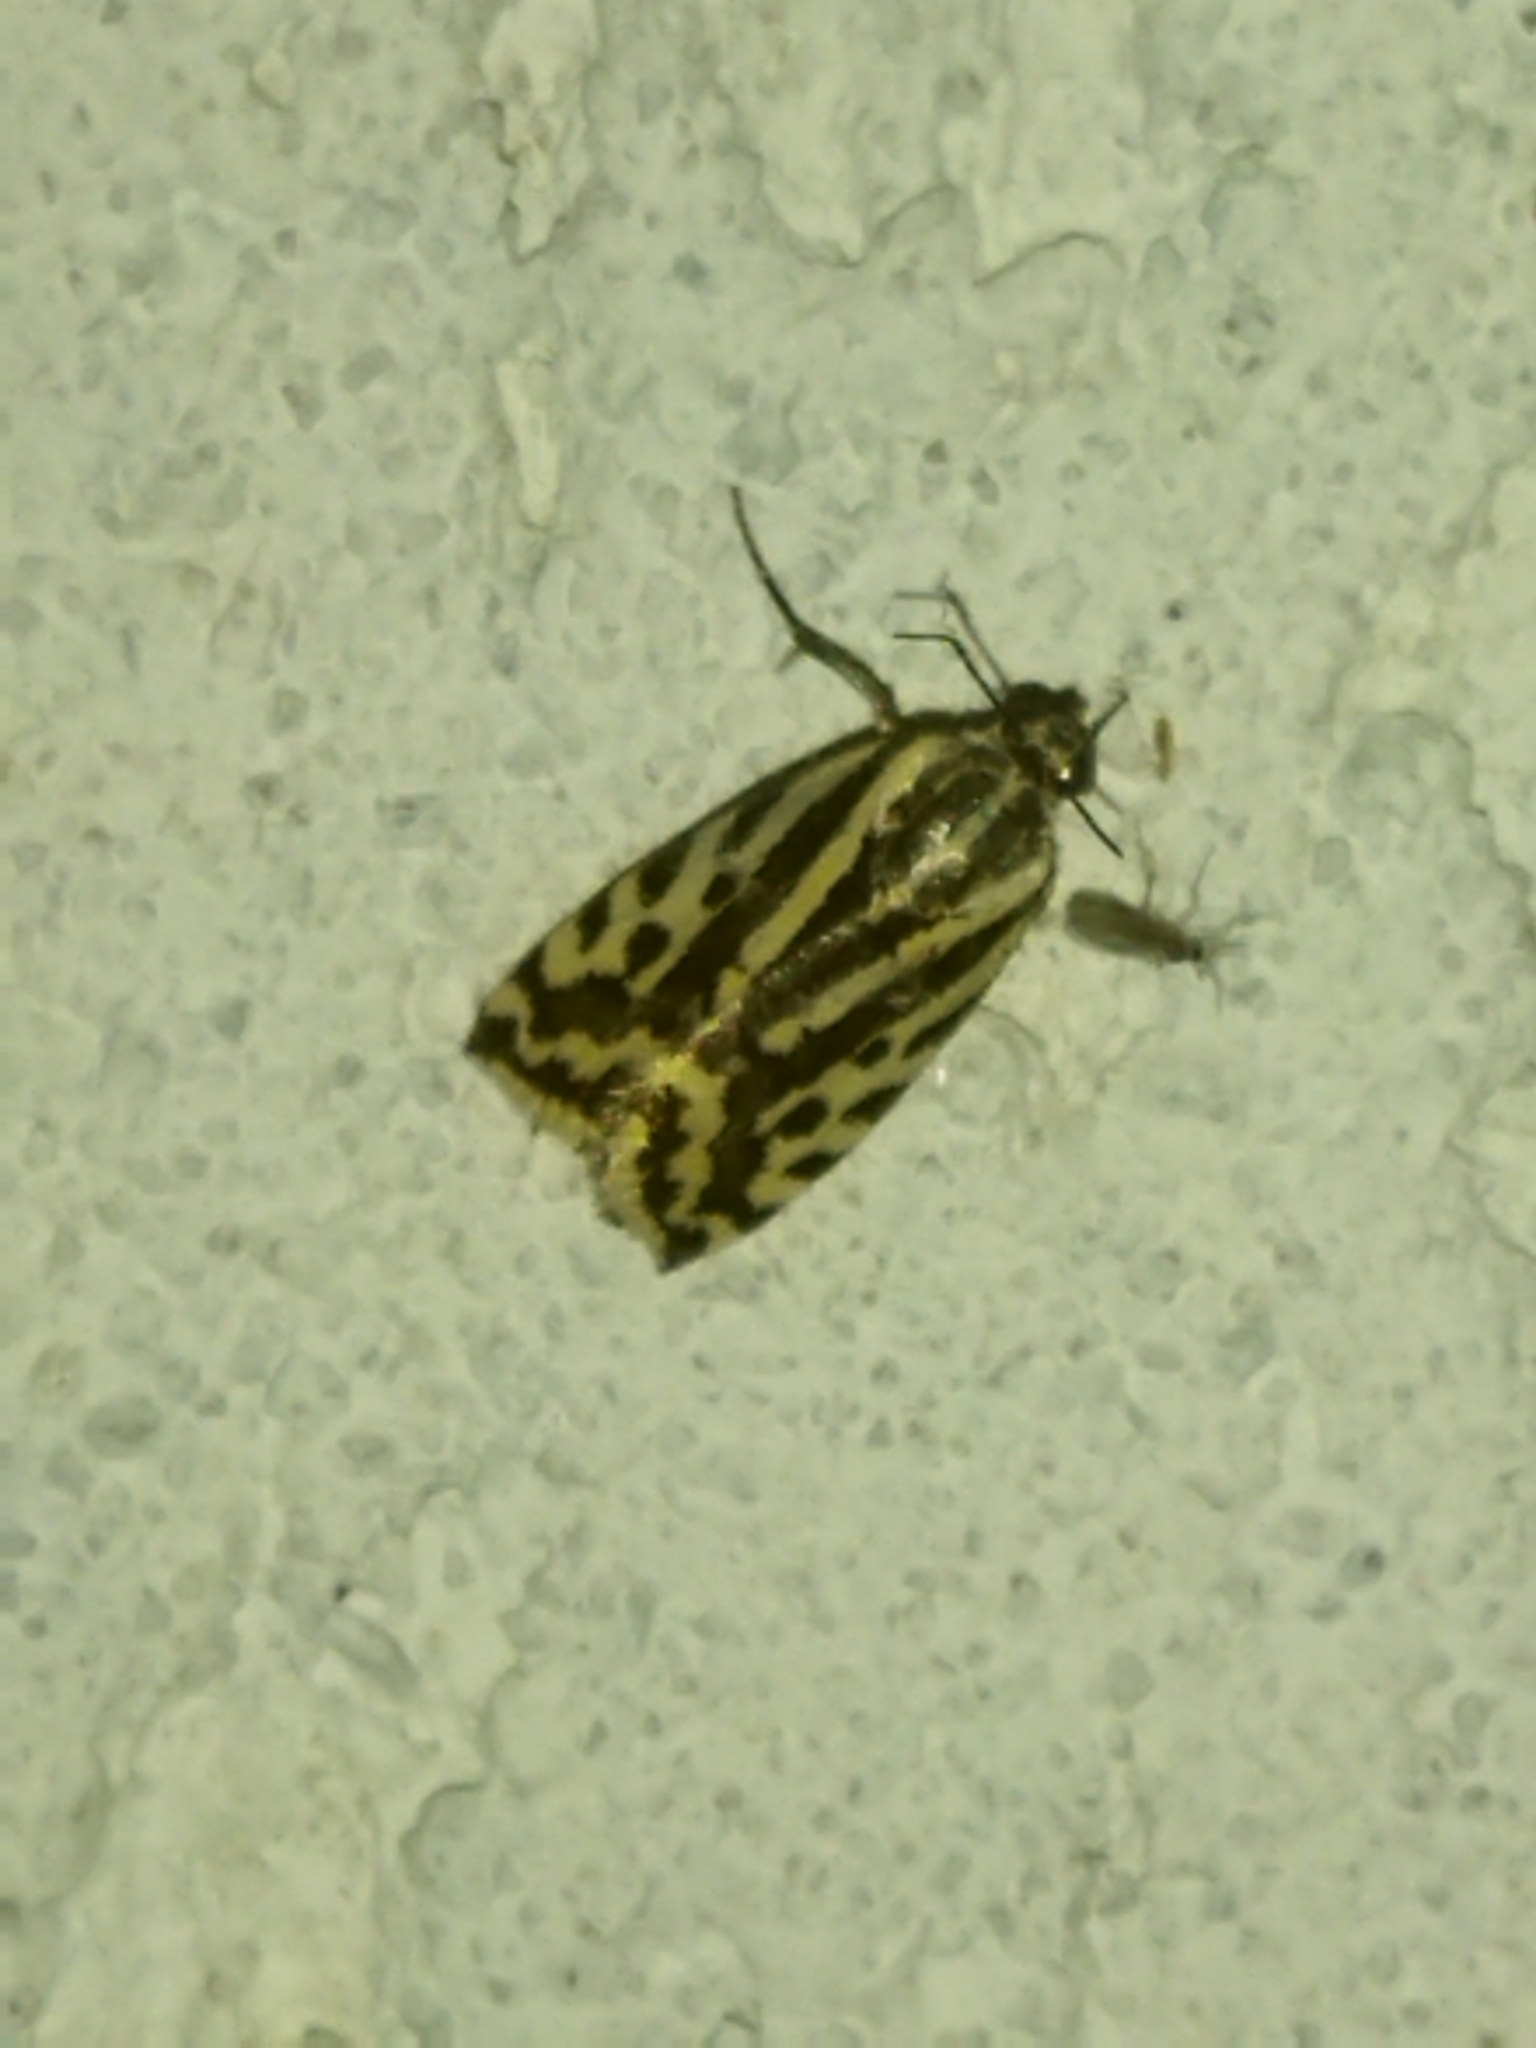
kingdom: Animalia
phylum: Arthropoda
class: Insecta
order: Lepidoptera
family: Noctuidae
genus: Acontia
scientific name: Acontia trabealis
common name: Spotted sulphur
